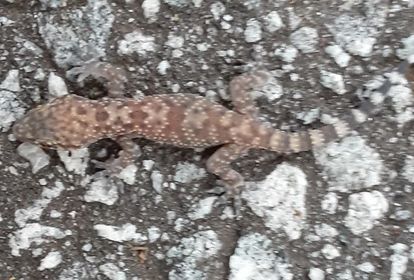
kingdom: Animalia
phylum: Chordata
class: Squamata
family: Gekkonidae
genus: Hemidactylus
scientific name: Hemidactylus turcicus
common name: Turkish gecko
